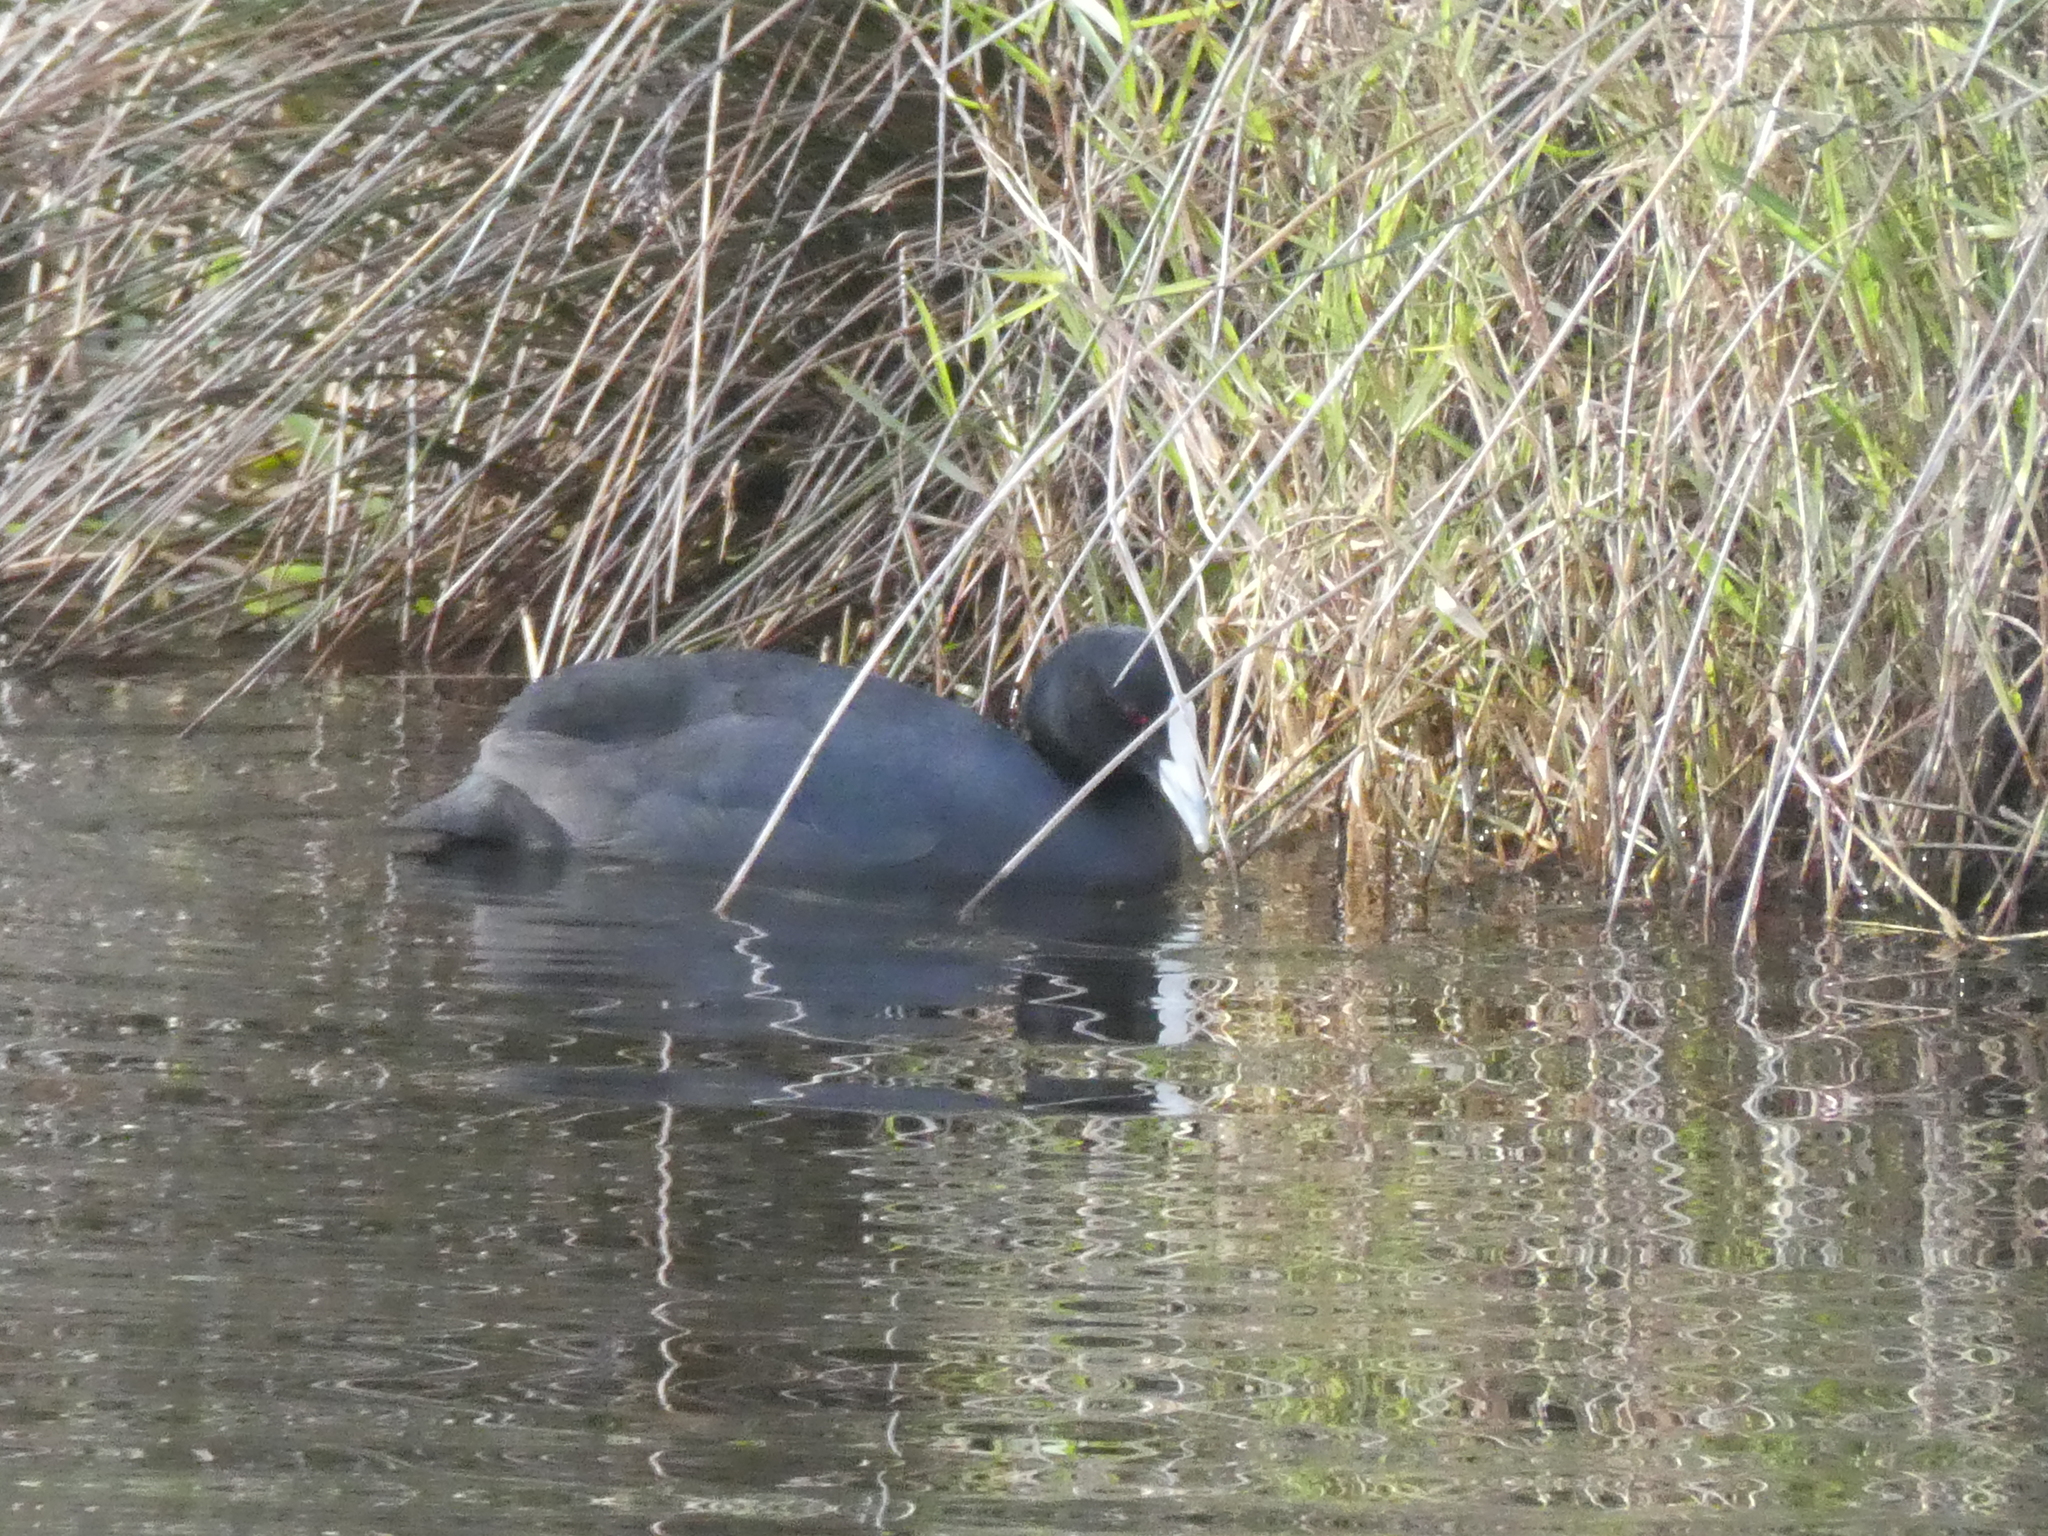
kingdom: Animalia
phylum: Chordata
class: Aves
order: Gruiformes
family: Rallidae
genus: Fulica
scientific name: Fulica atra
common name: Eurasian coot
